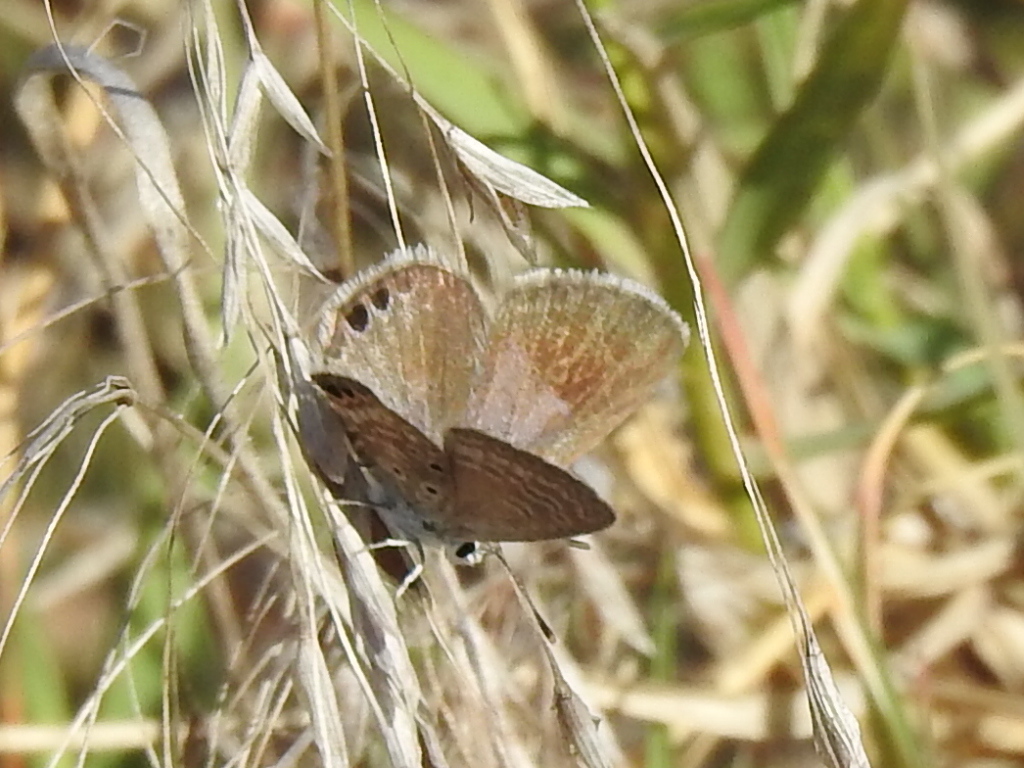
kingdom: Animalia
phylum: Arthropoda
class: Insecta
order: Lepidoptera
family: Lycaenidae
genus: Hemiargus
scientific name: Hemiargus ceraunus
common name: Ceraunus blue
